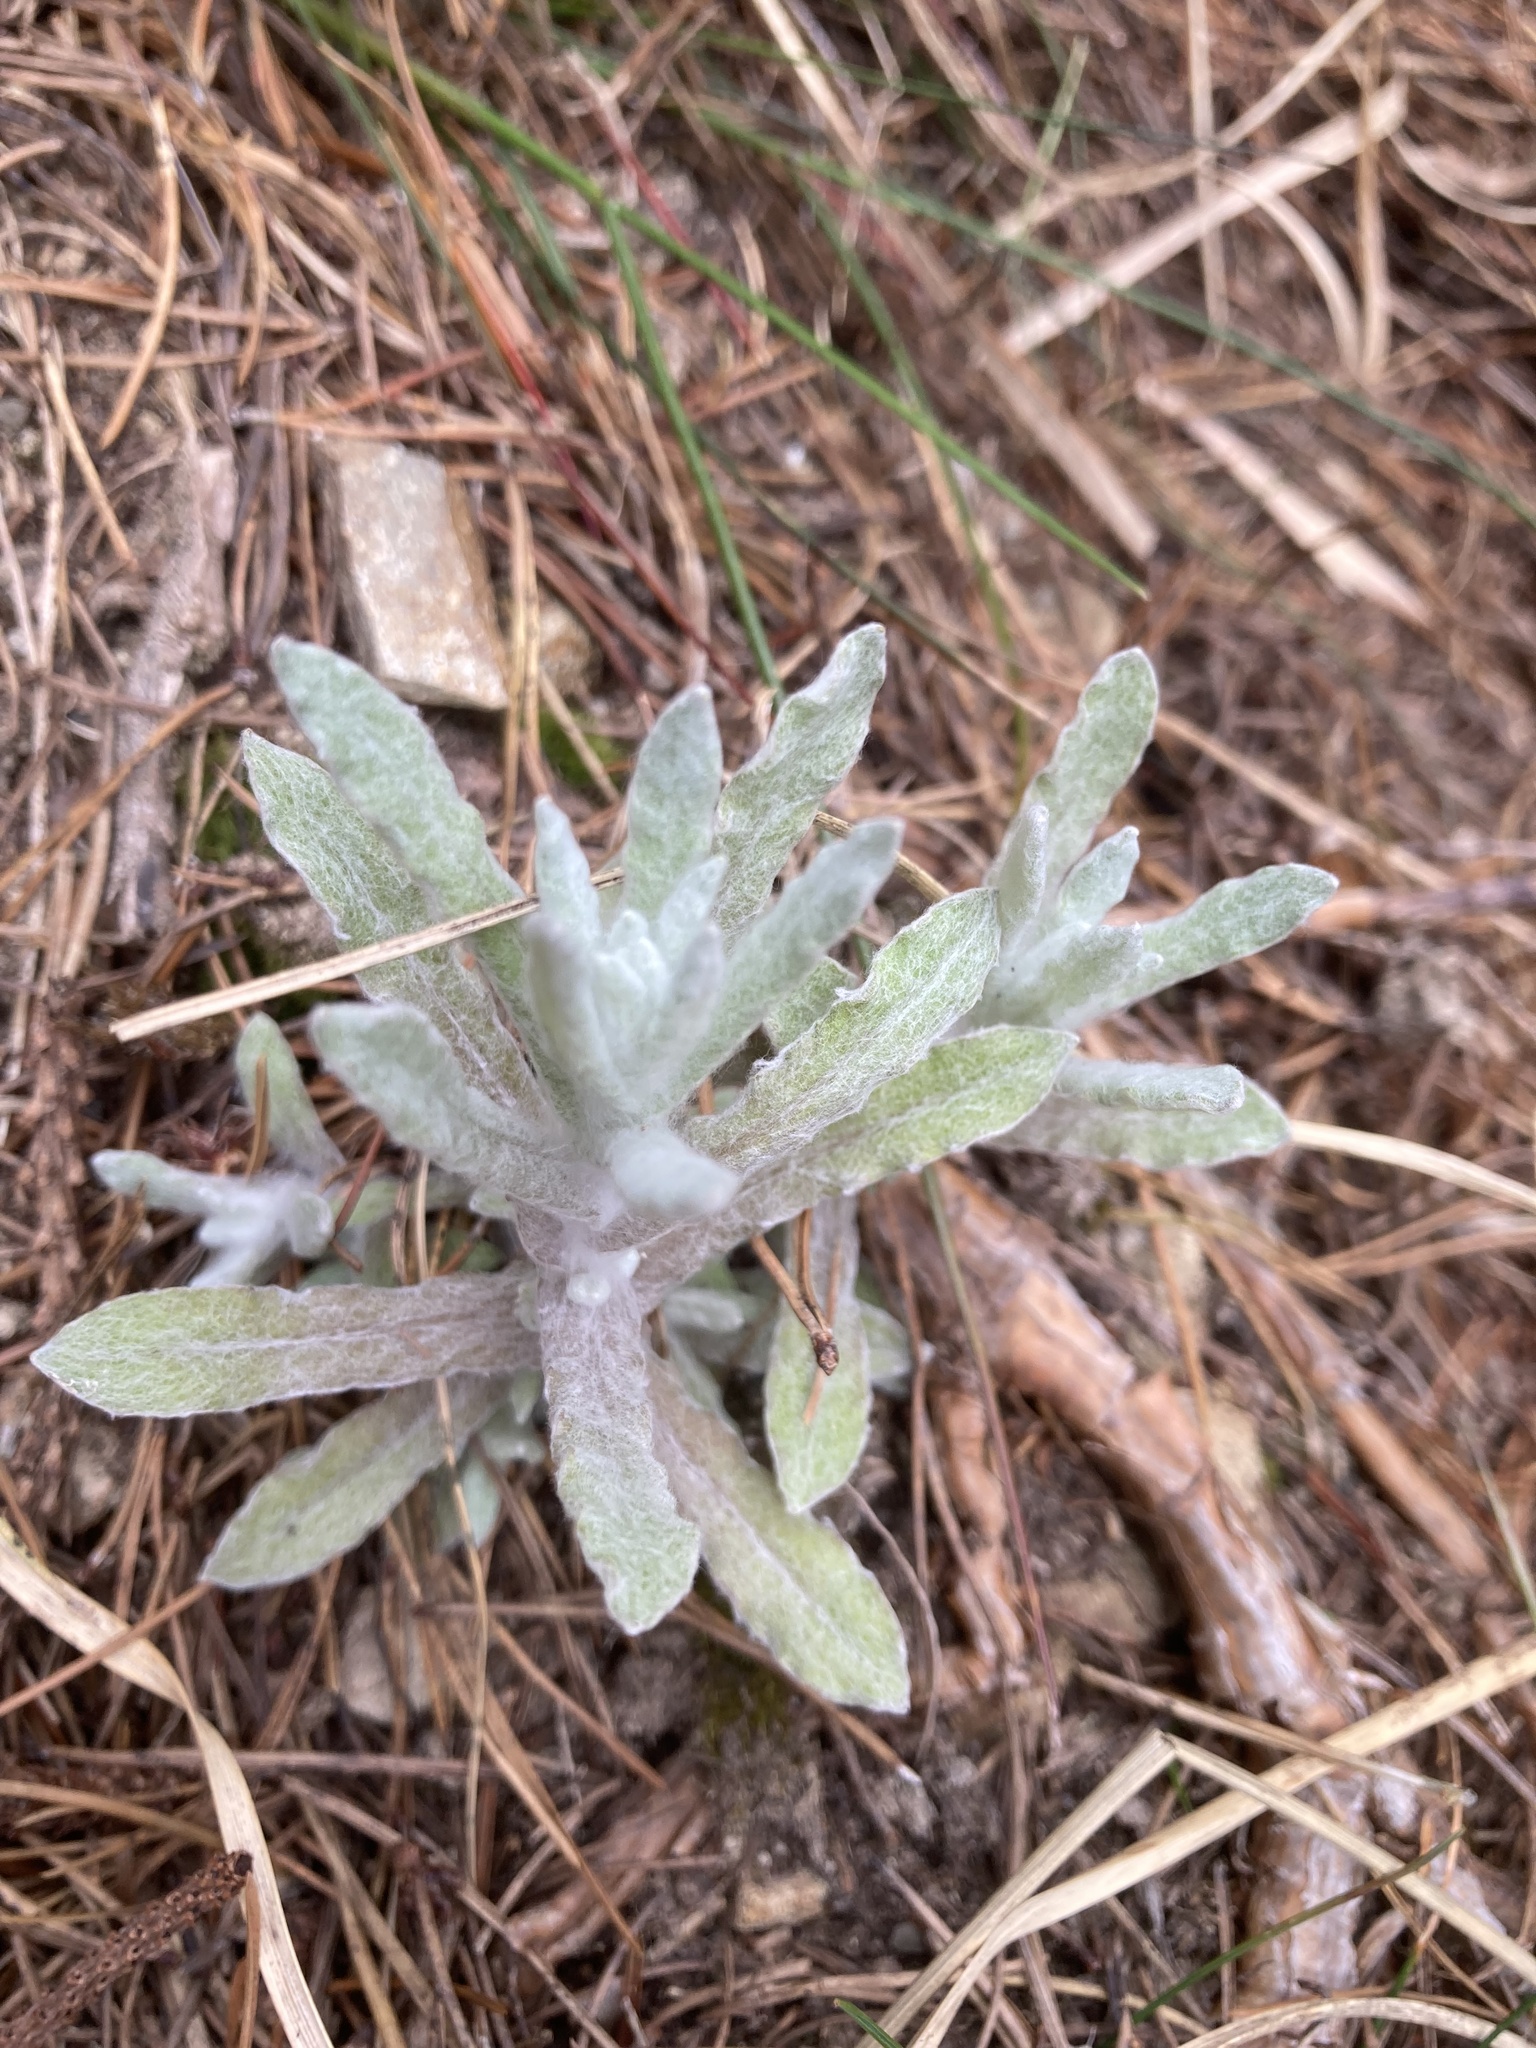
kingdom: Plantae
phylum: Tracheophyta
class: Magnoliopsida
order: Asterales
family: Asteraceae
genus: Helichrysum
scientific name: Helichrysum luteoalbum
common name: Daisy
